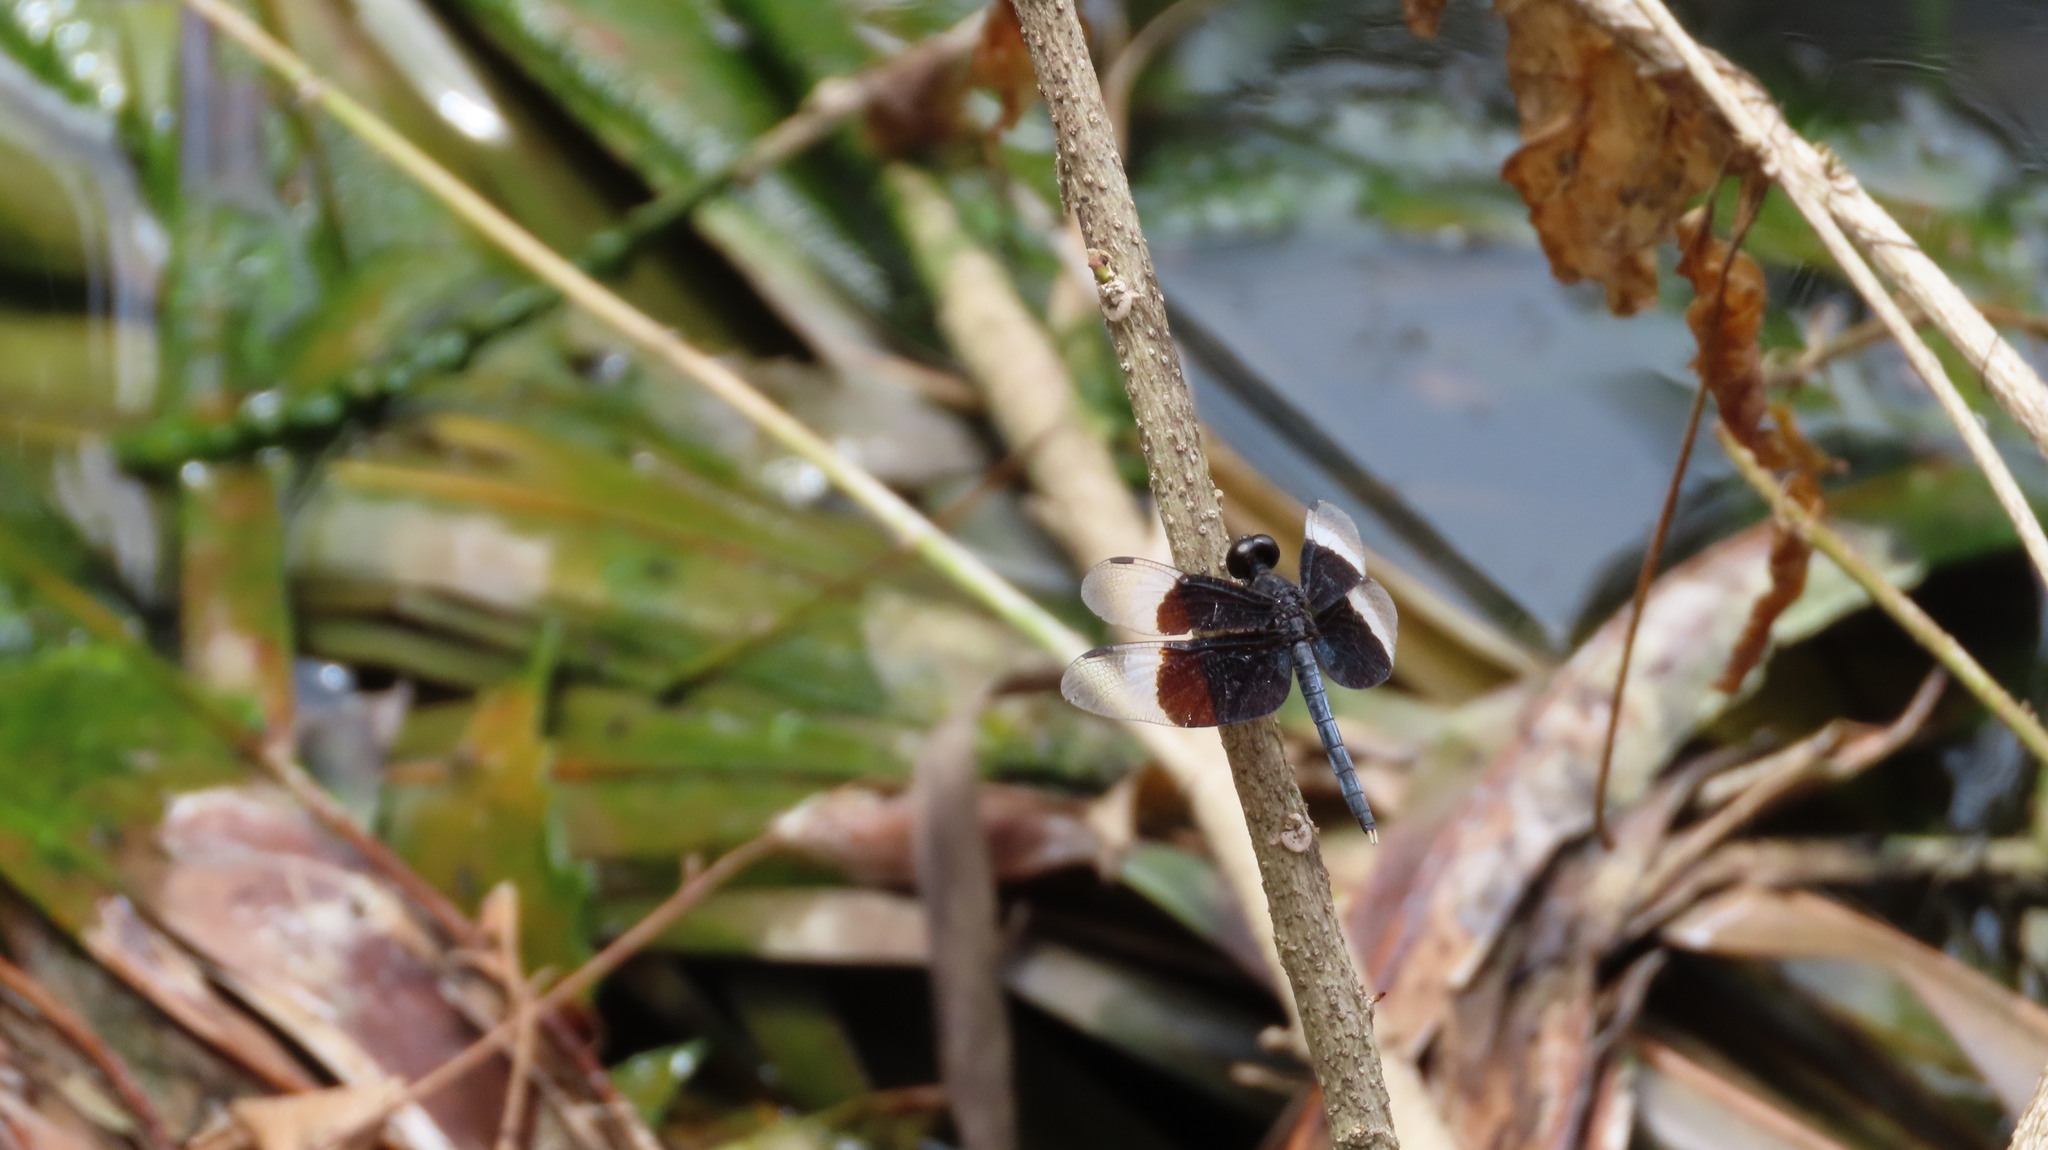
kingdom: Animalia
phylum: Arthropoda
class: Insecta
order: Odonata
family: Libellulidae
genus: Neurothemis
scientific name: Neurothemis tullia
